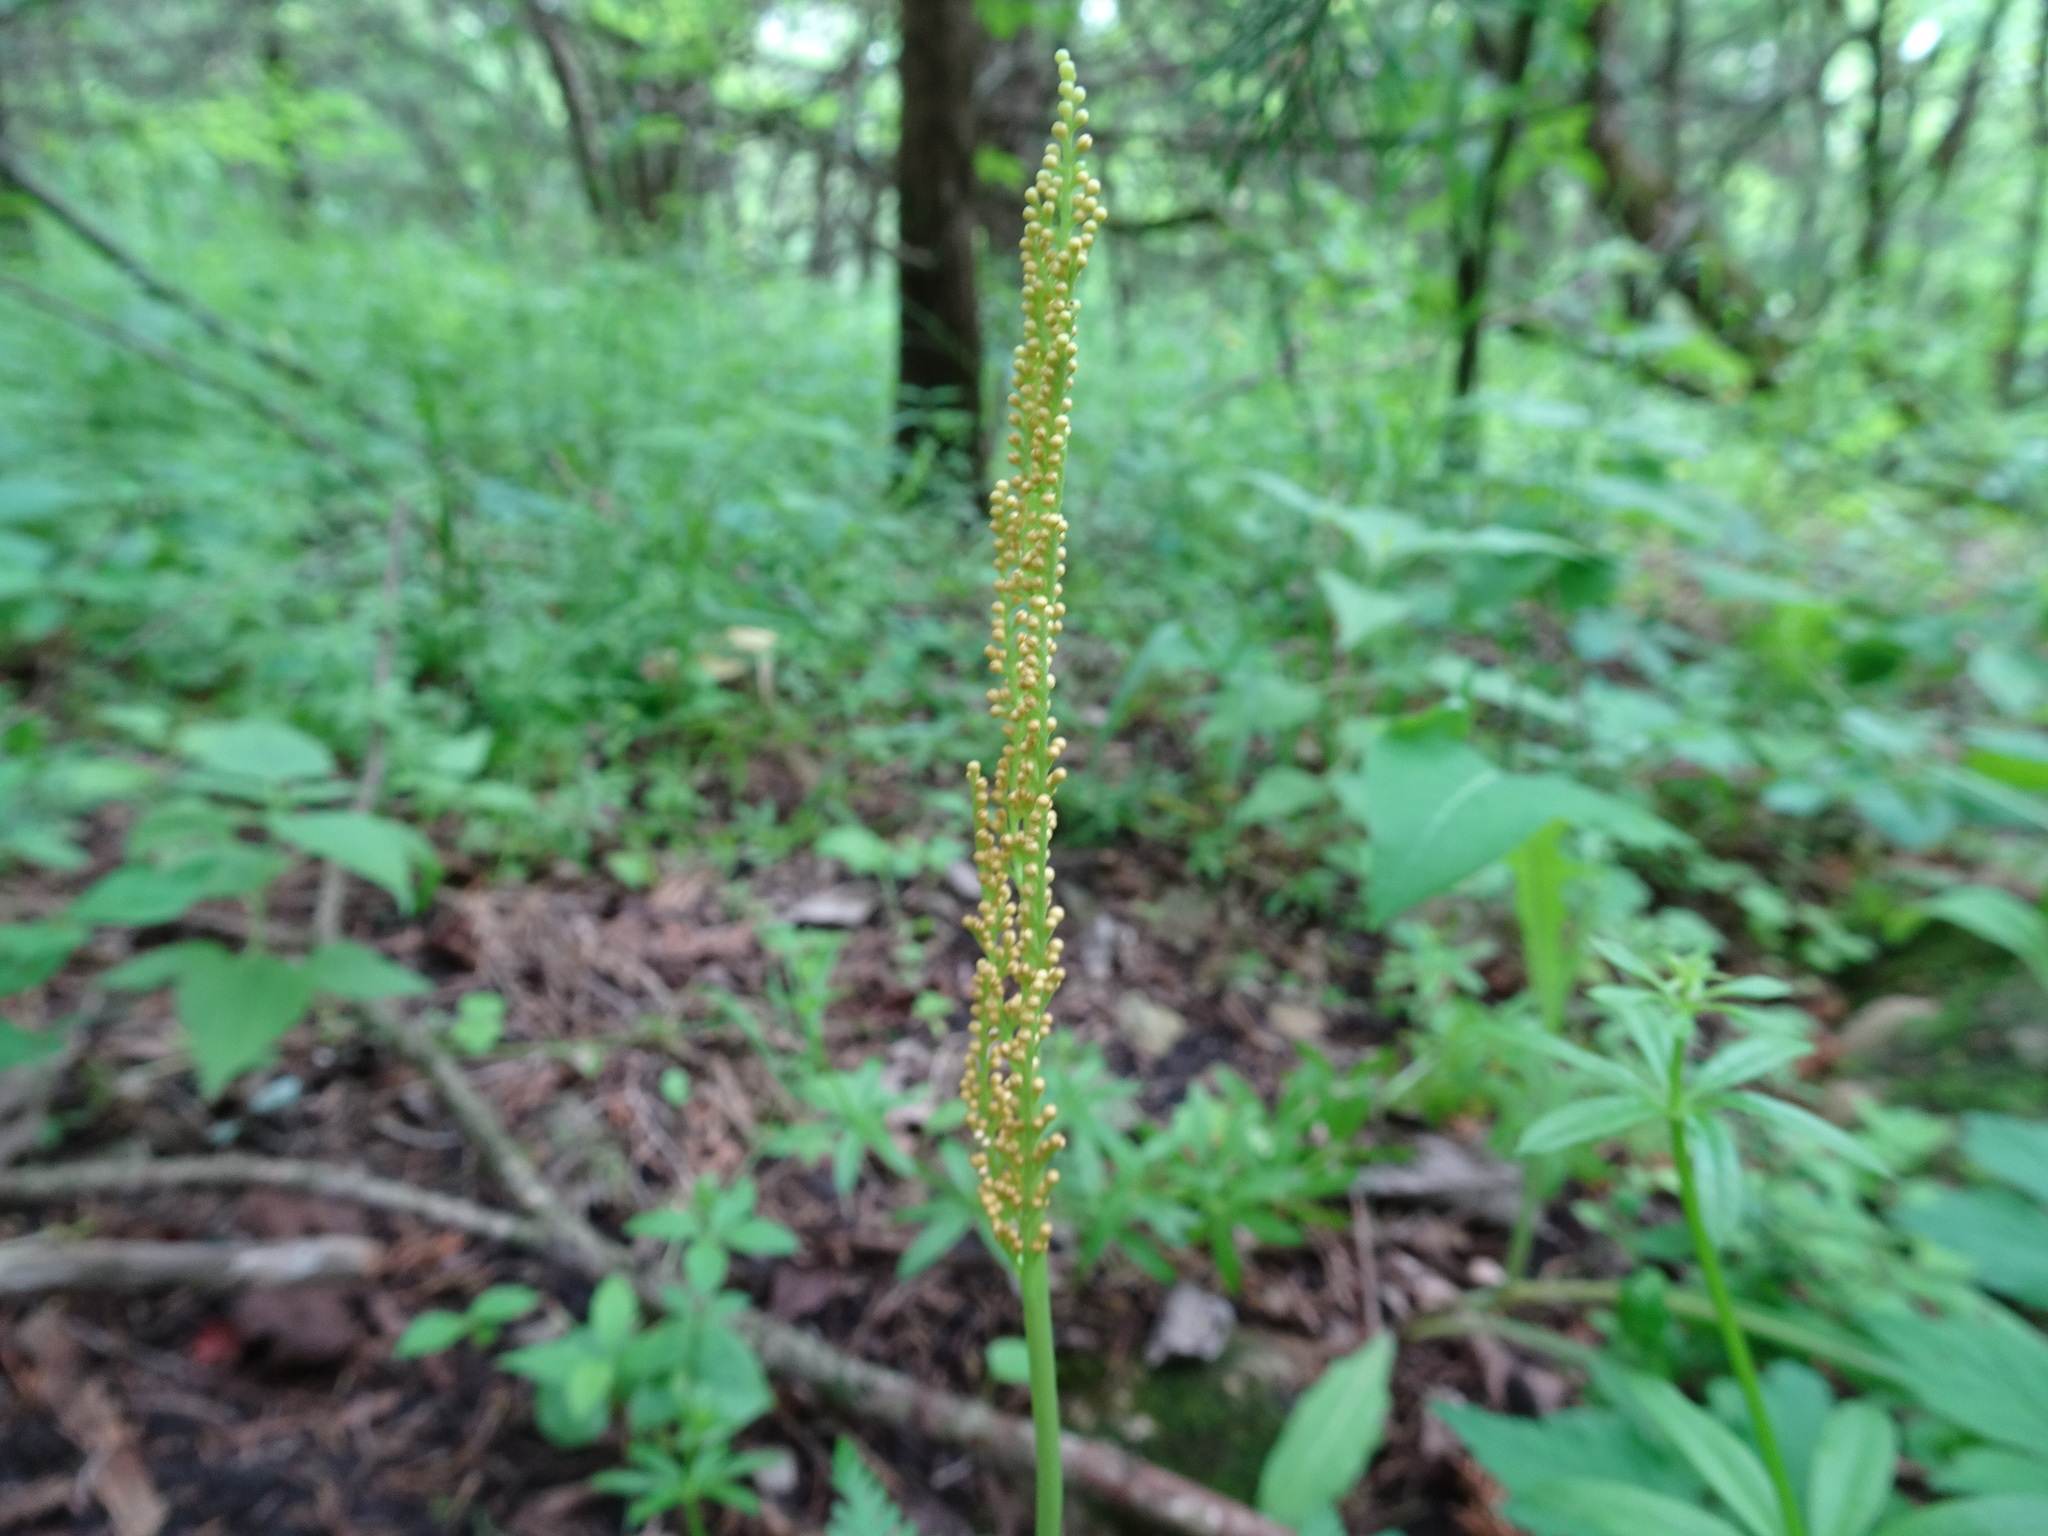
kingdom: Plantae
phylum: Tracheophyta
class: Polypodiopsida
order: Ophioglossales
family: Ophioglossaceae
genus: Botrypus
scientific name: Botrypus virginianus
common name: Common grapefern
